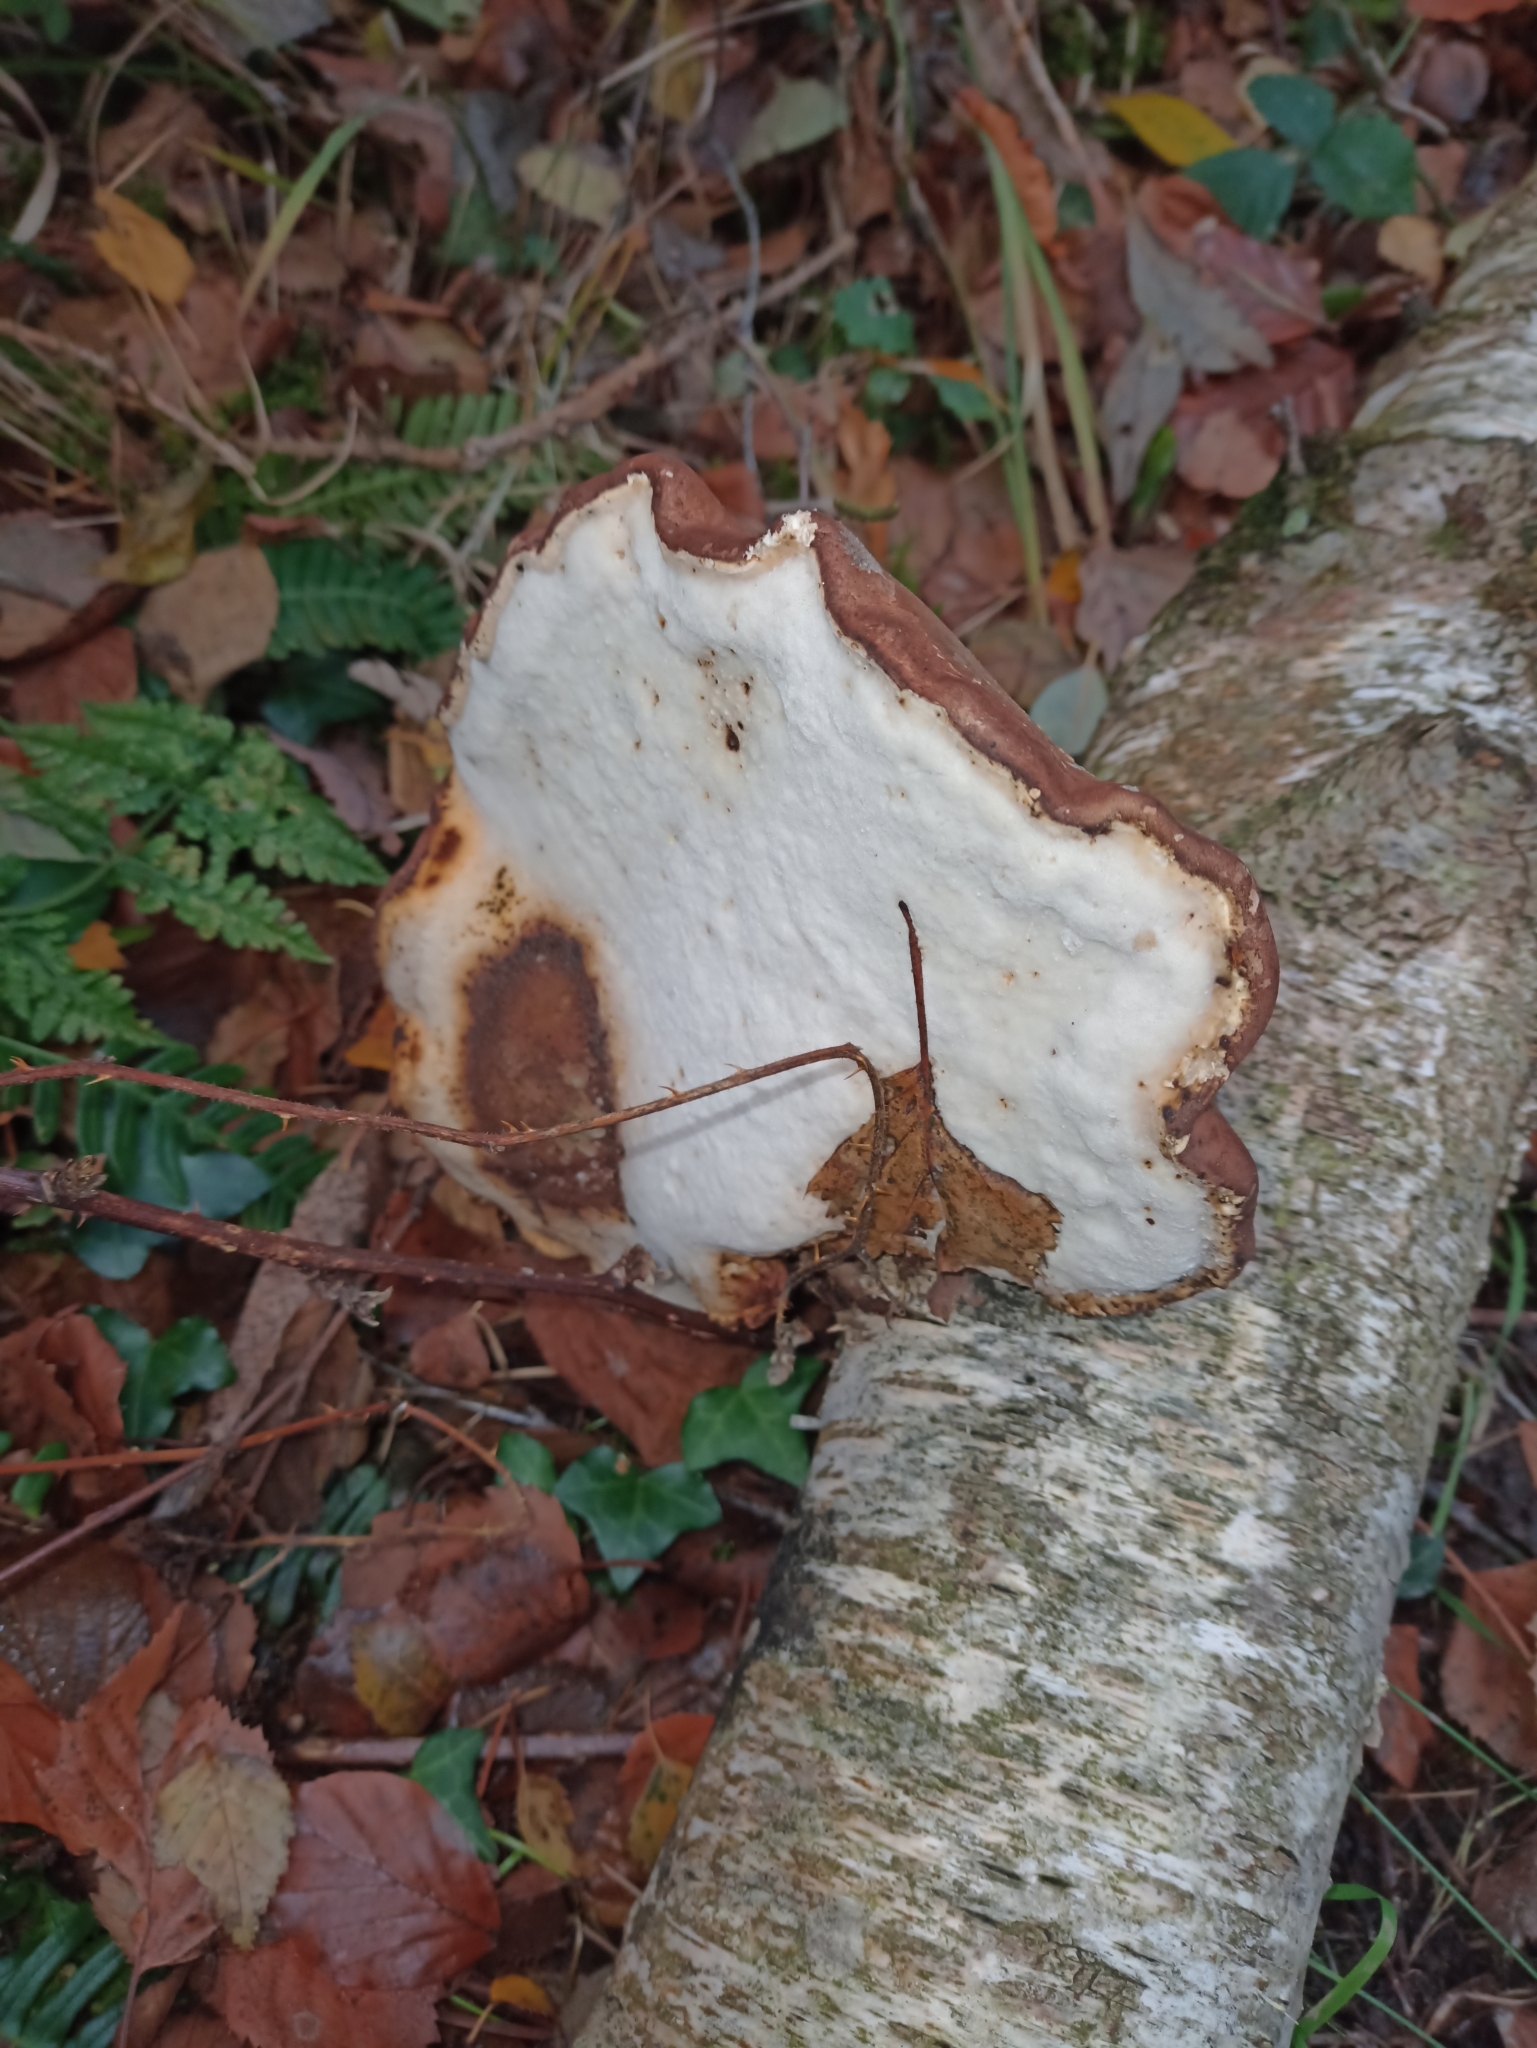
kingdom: Fungi
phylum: Basidiomycota
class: Agaricomycetes
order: Polyporales
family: Fomitopsidaceae
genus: Fomitopsis
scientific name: Fomitopsis betulina
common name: Birch polypore
